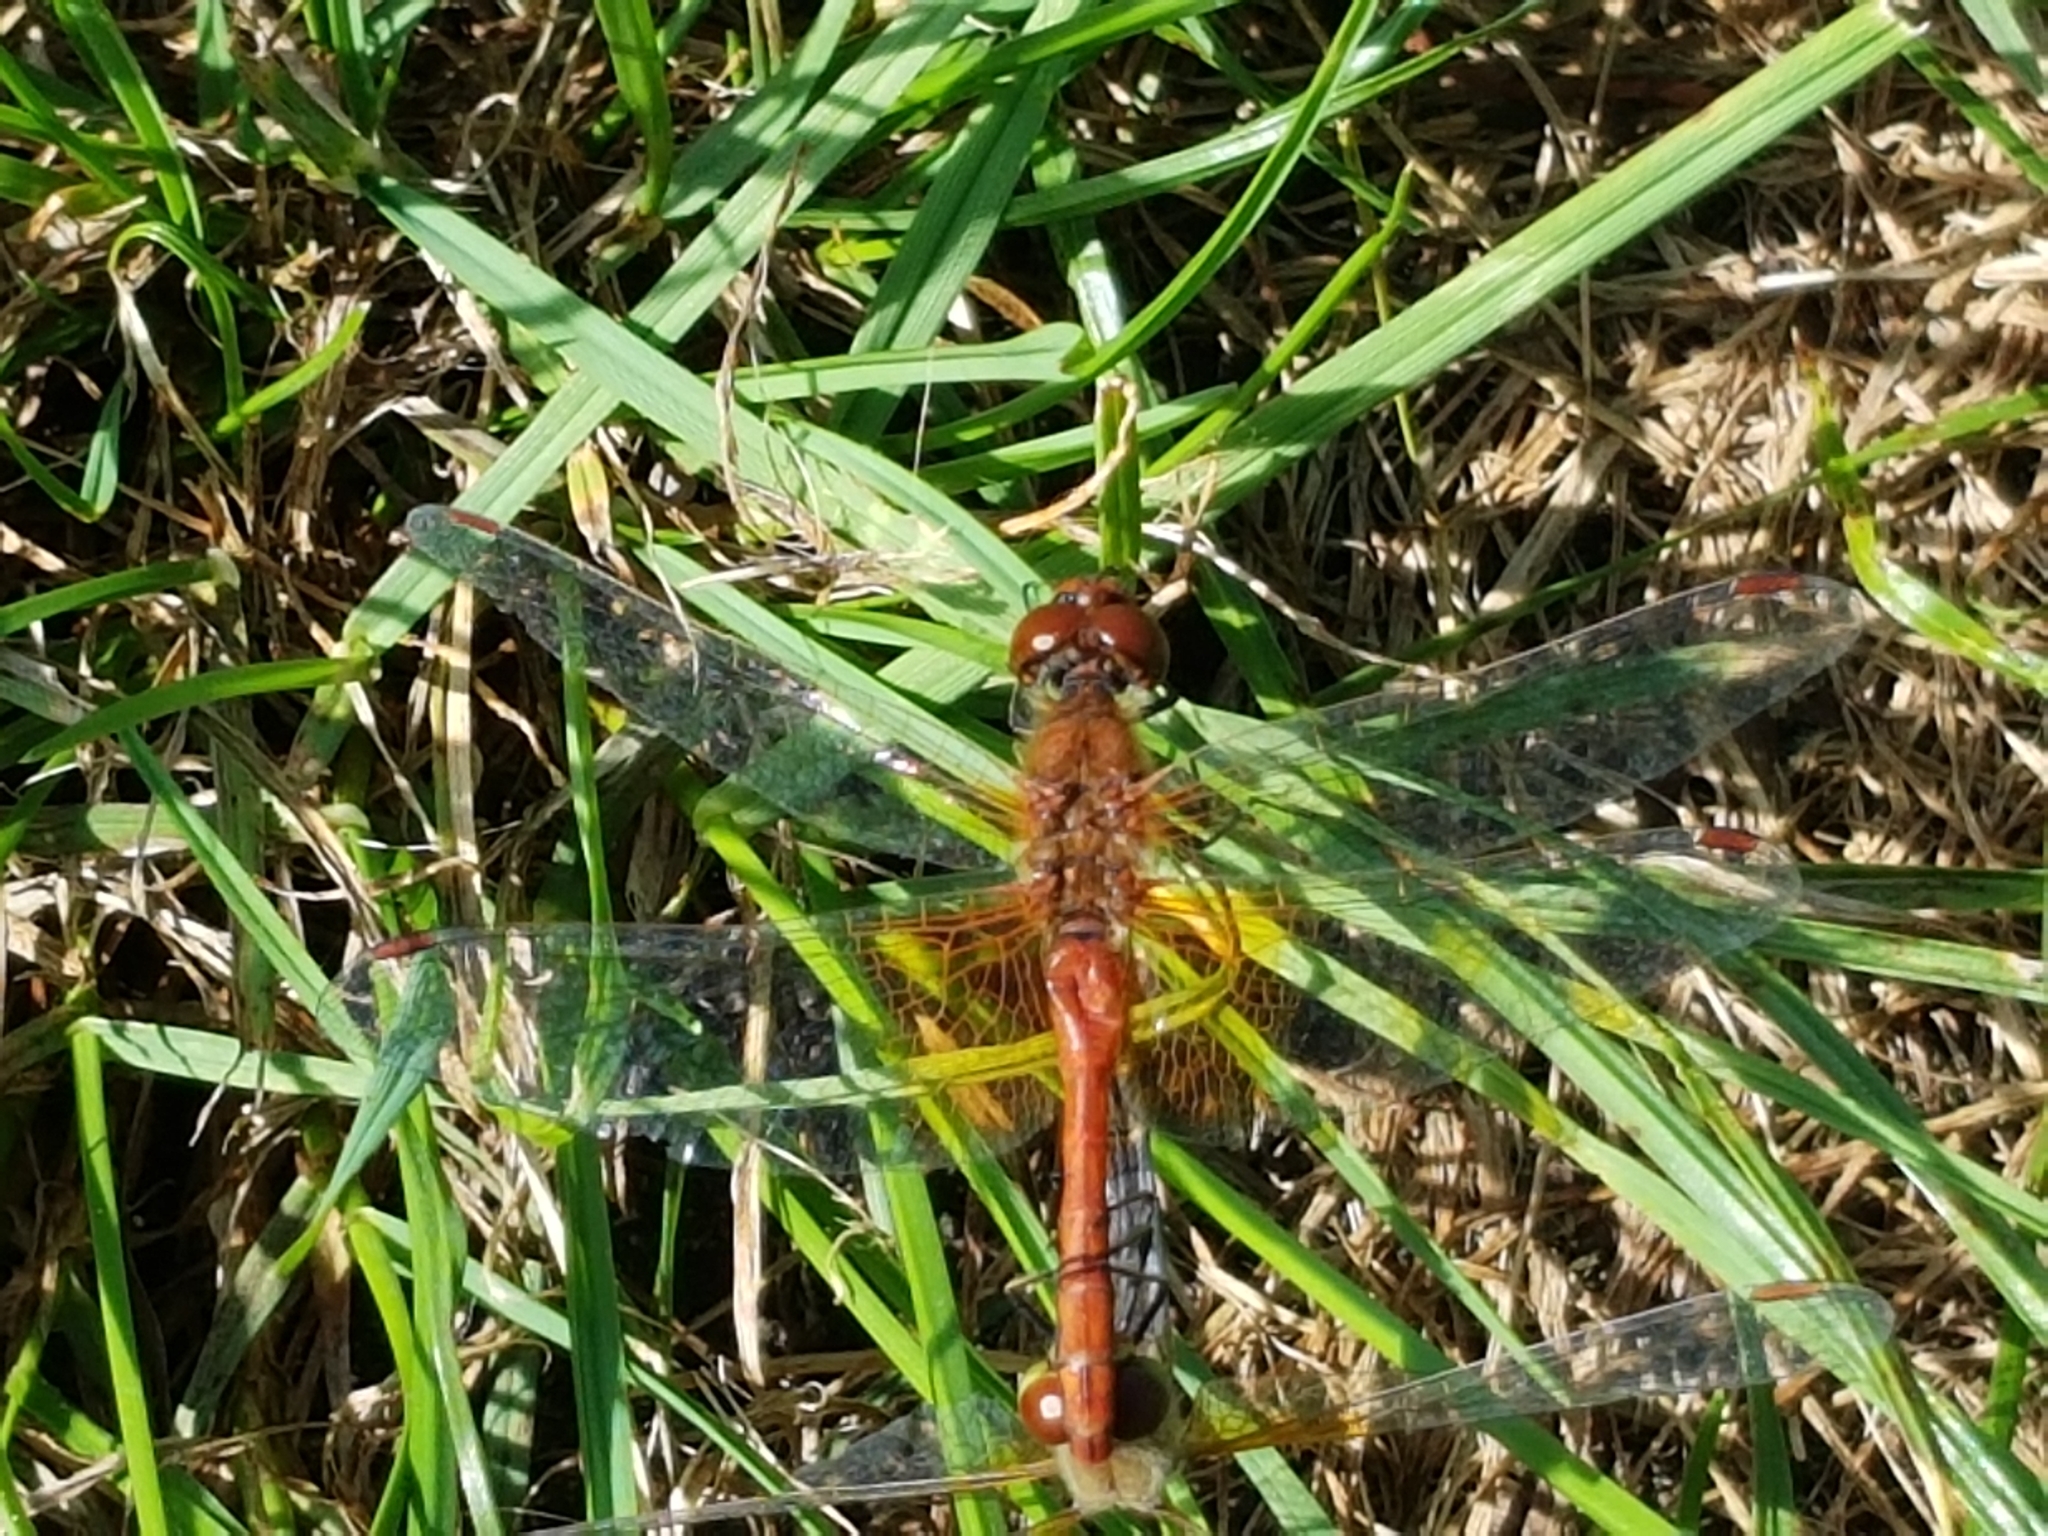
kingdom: Animalia
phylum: Arthropoda
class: Insecta
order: Odonata
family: Libellulidae
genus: Sympetrum
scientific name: Sympetrum flaveolum
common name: Yellow-winged darter
